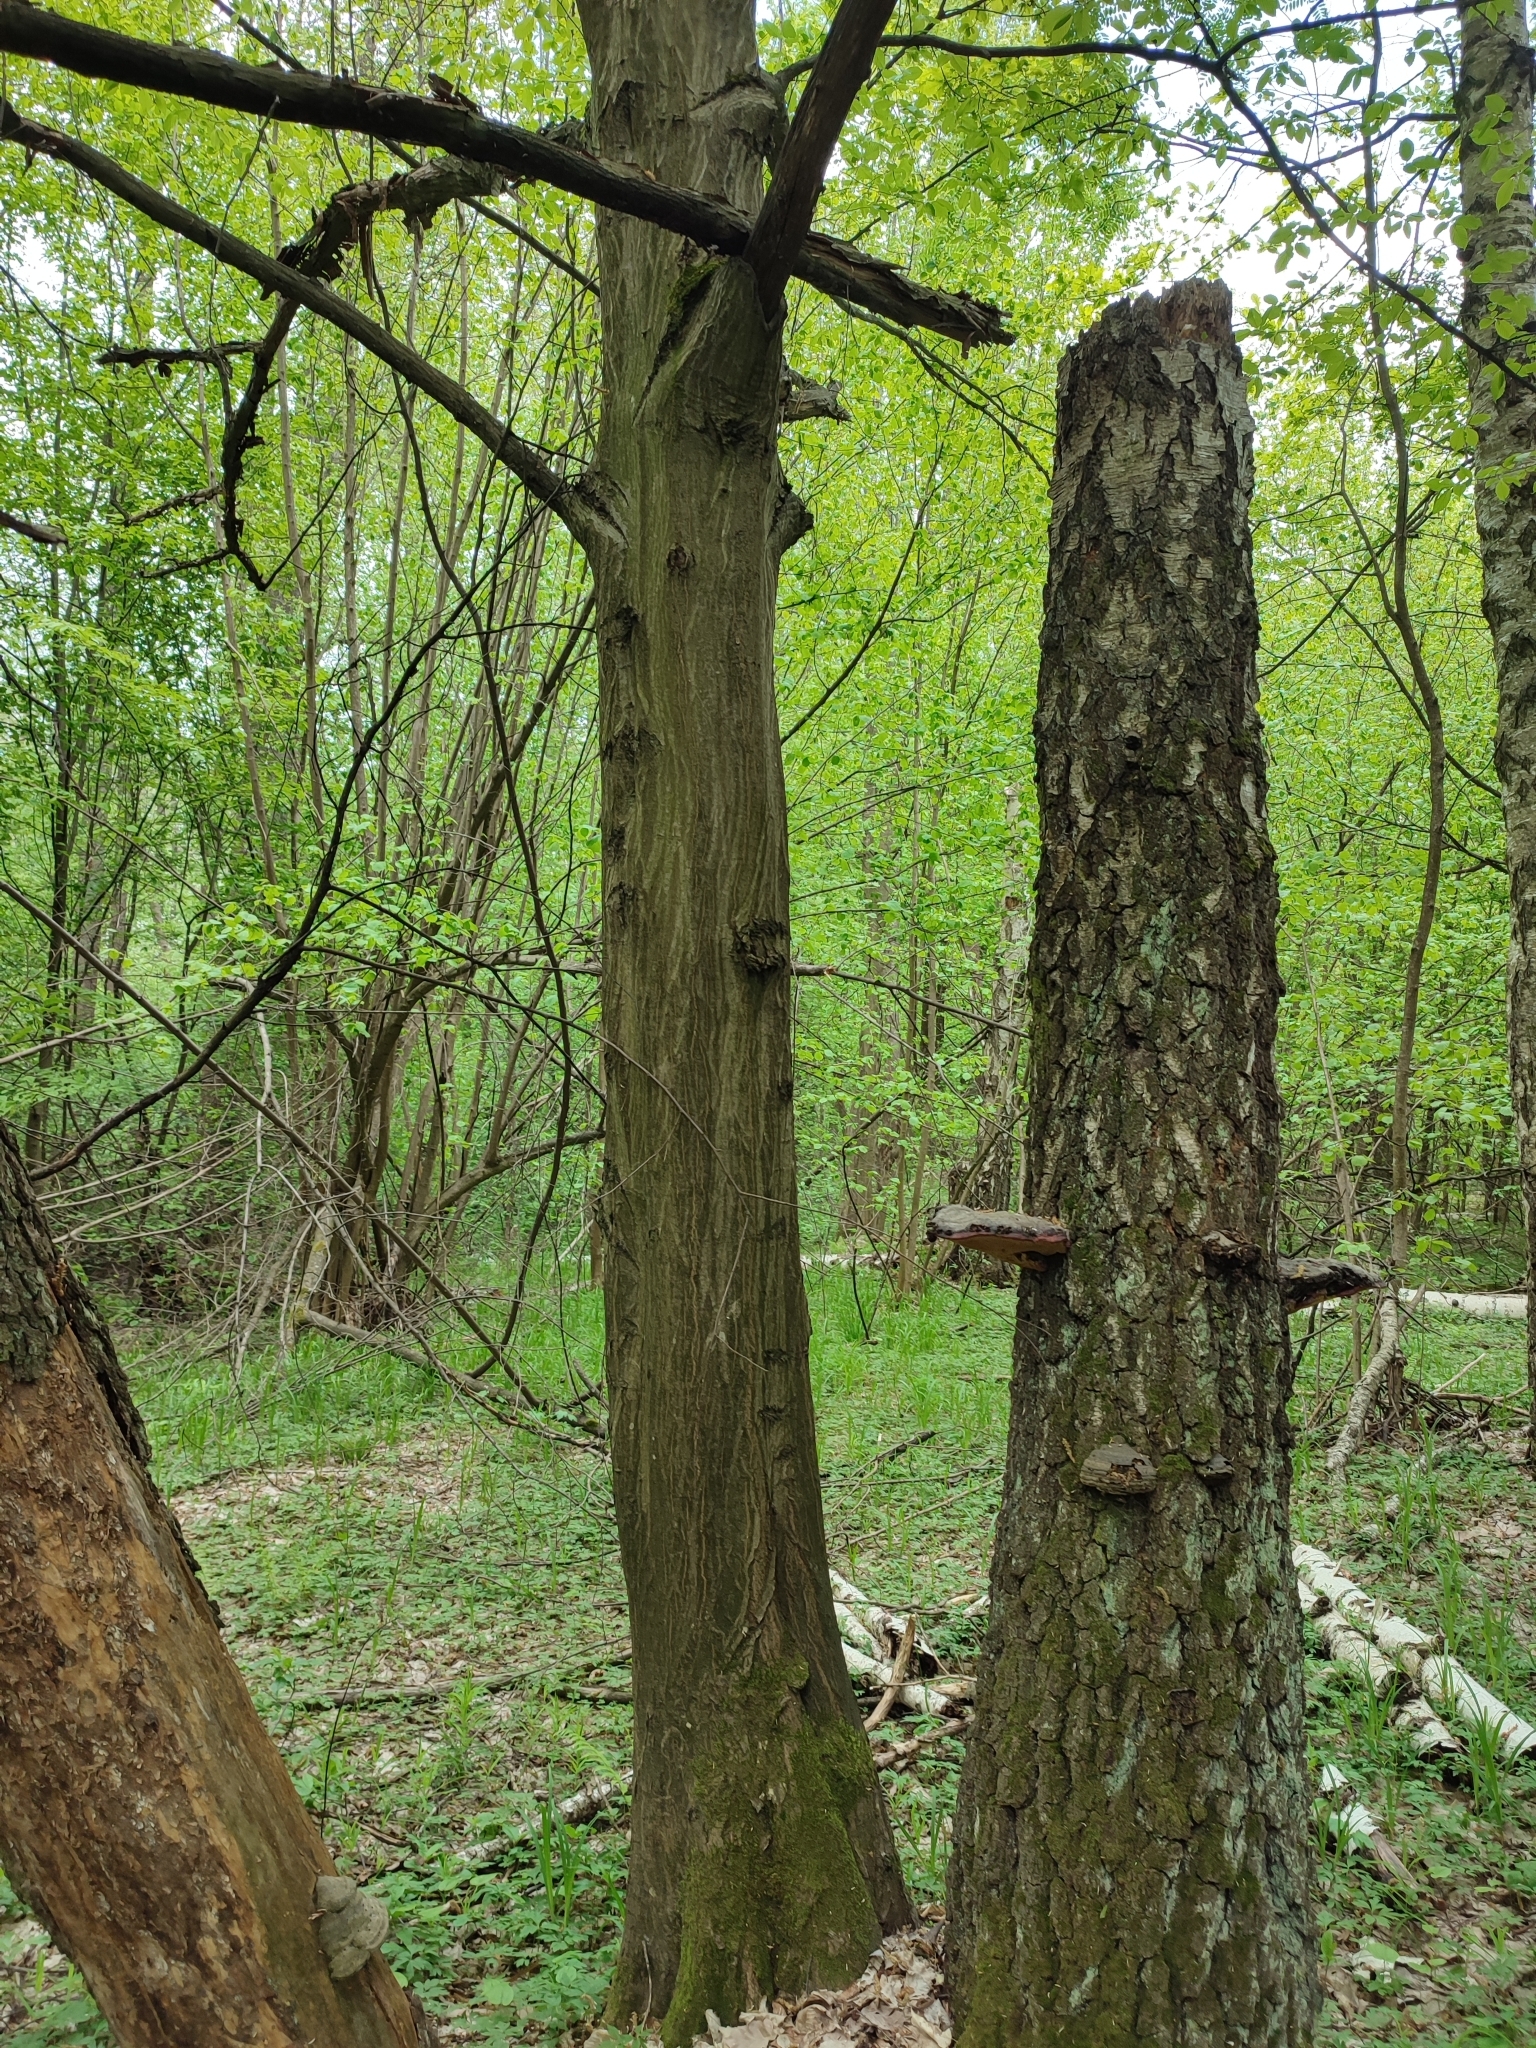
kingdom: Plantae
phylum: Tracheophyta
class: Magnoliopsida
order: Fagales
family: Betulaceae
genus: Carpinus
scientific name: Carpinus betulus
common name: Hornbeam
